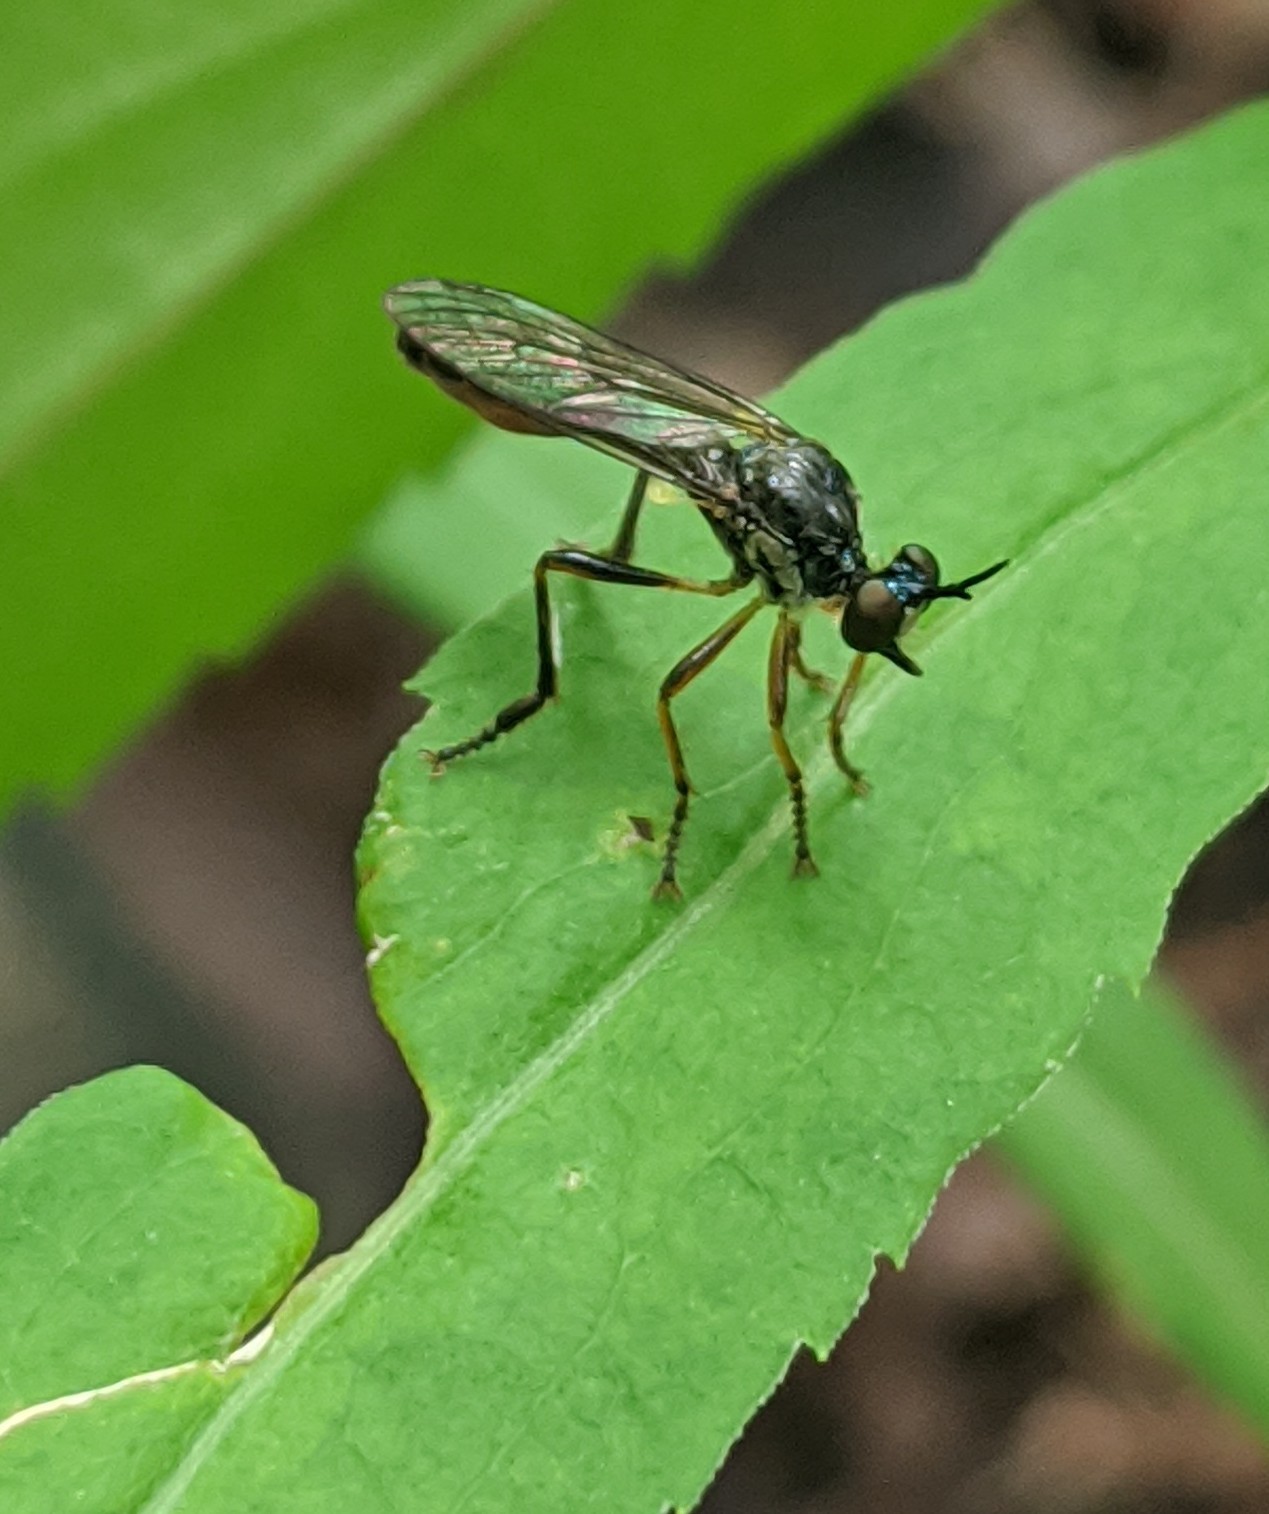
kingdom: Animalia
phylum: Arthropoda
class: Insecta
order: Diptera
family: Asilidae
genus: Dioctria
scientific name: Dioctria hyalipennis
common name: Stripe-legged robberfly
